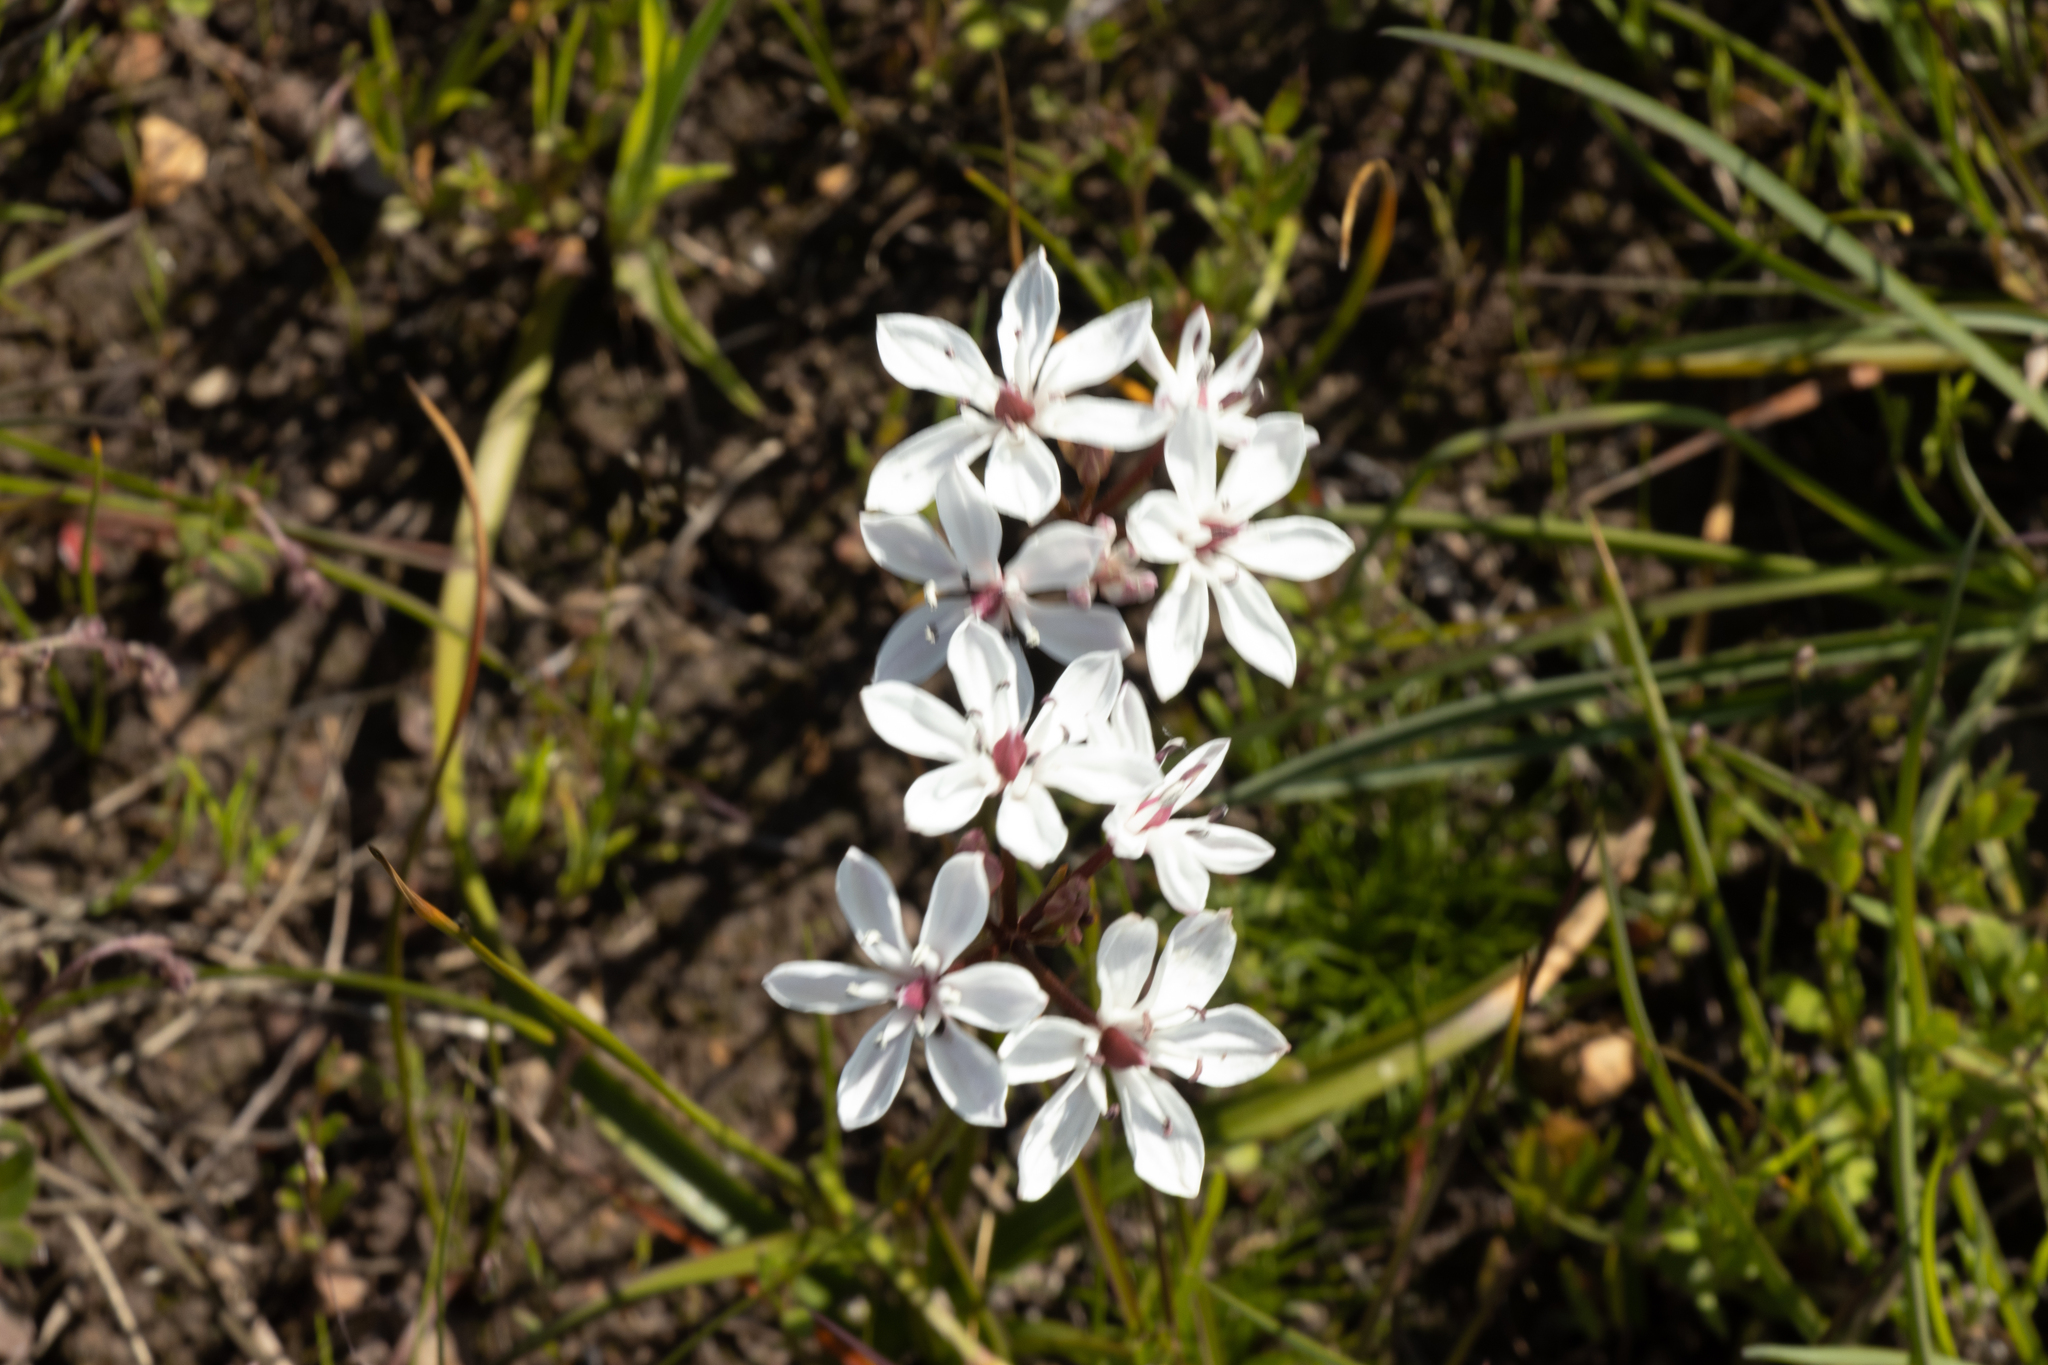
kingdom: Plantae
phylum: Tracheophyta
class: Liliopsida
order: Liliales
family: Colchicaceae
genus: Burchardia
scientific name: Burchardia umbellata
